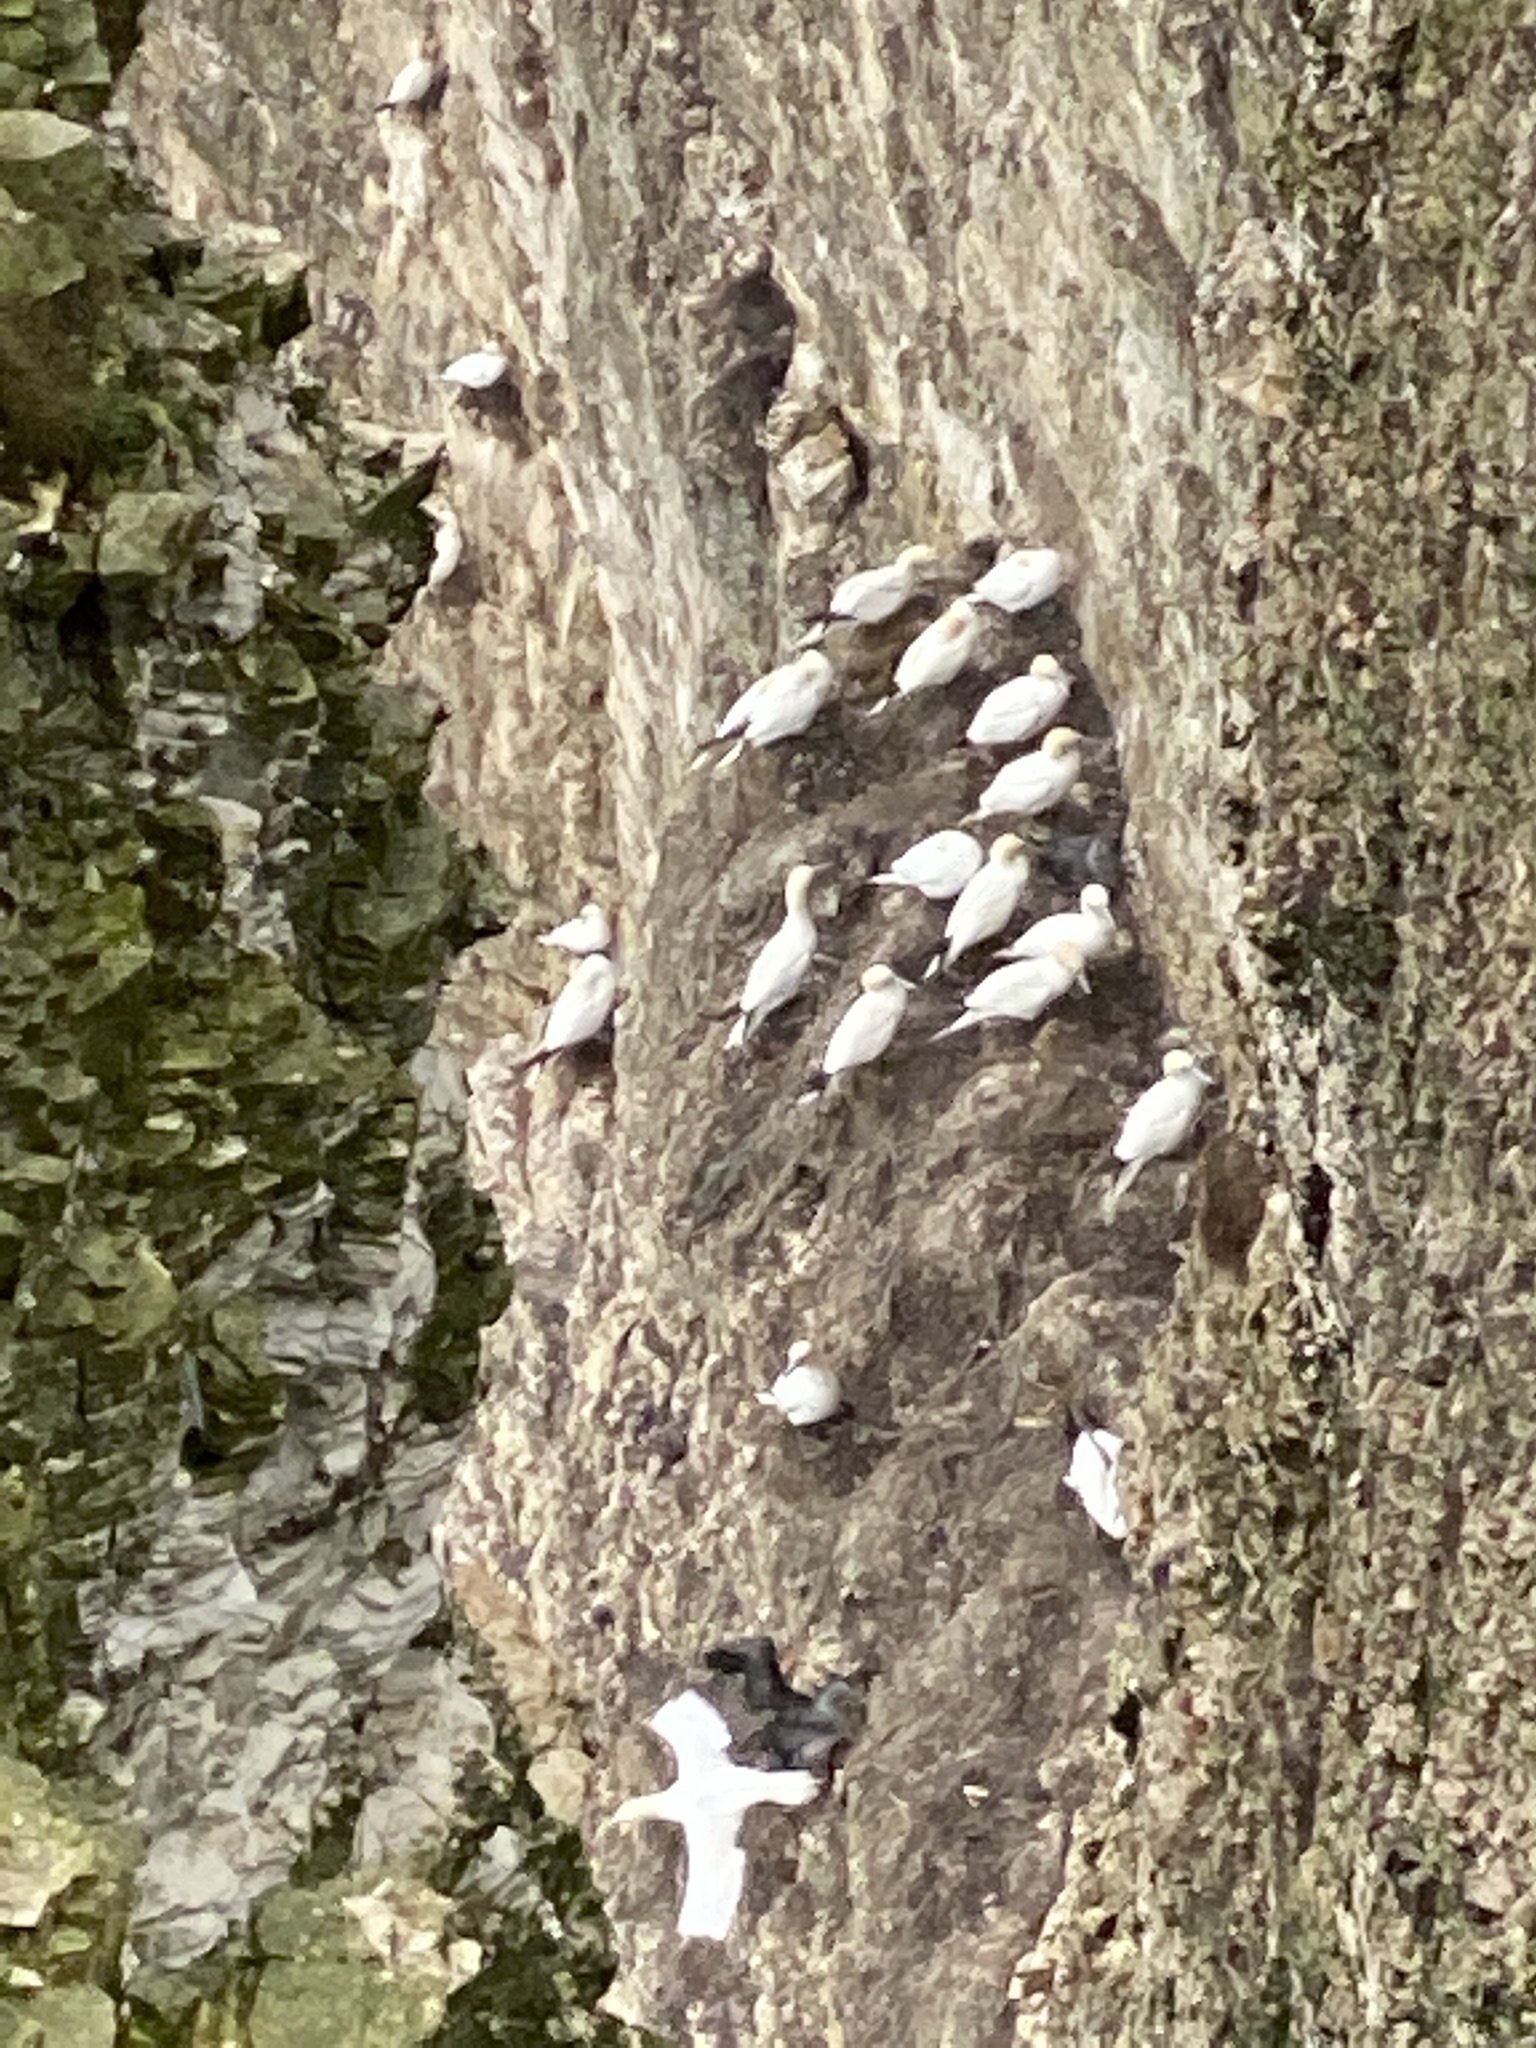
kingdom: Animalia
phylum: Chordata
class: Aves
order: Suliformes
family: Sulidae
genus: Morus
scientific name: Morus bassanus
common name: Northern gannet
